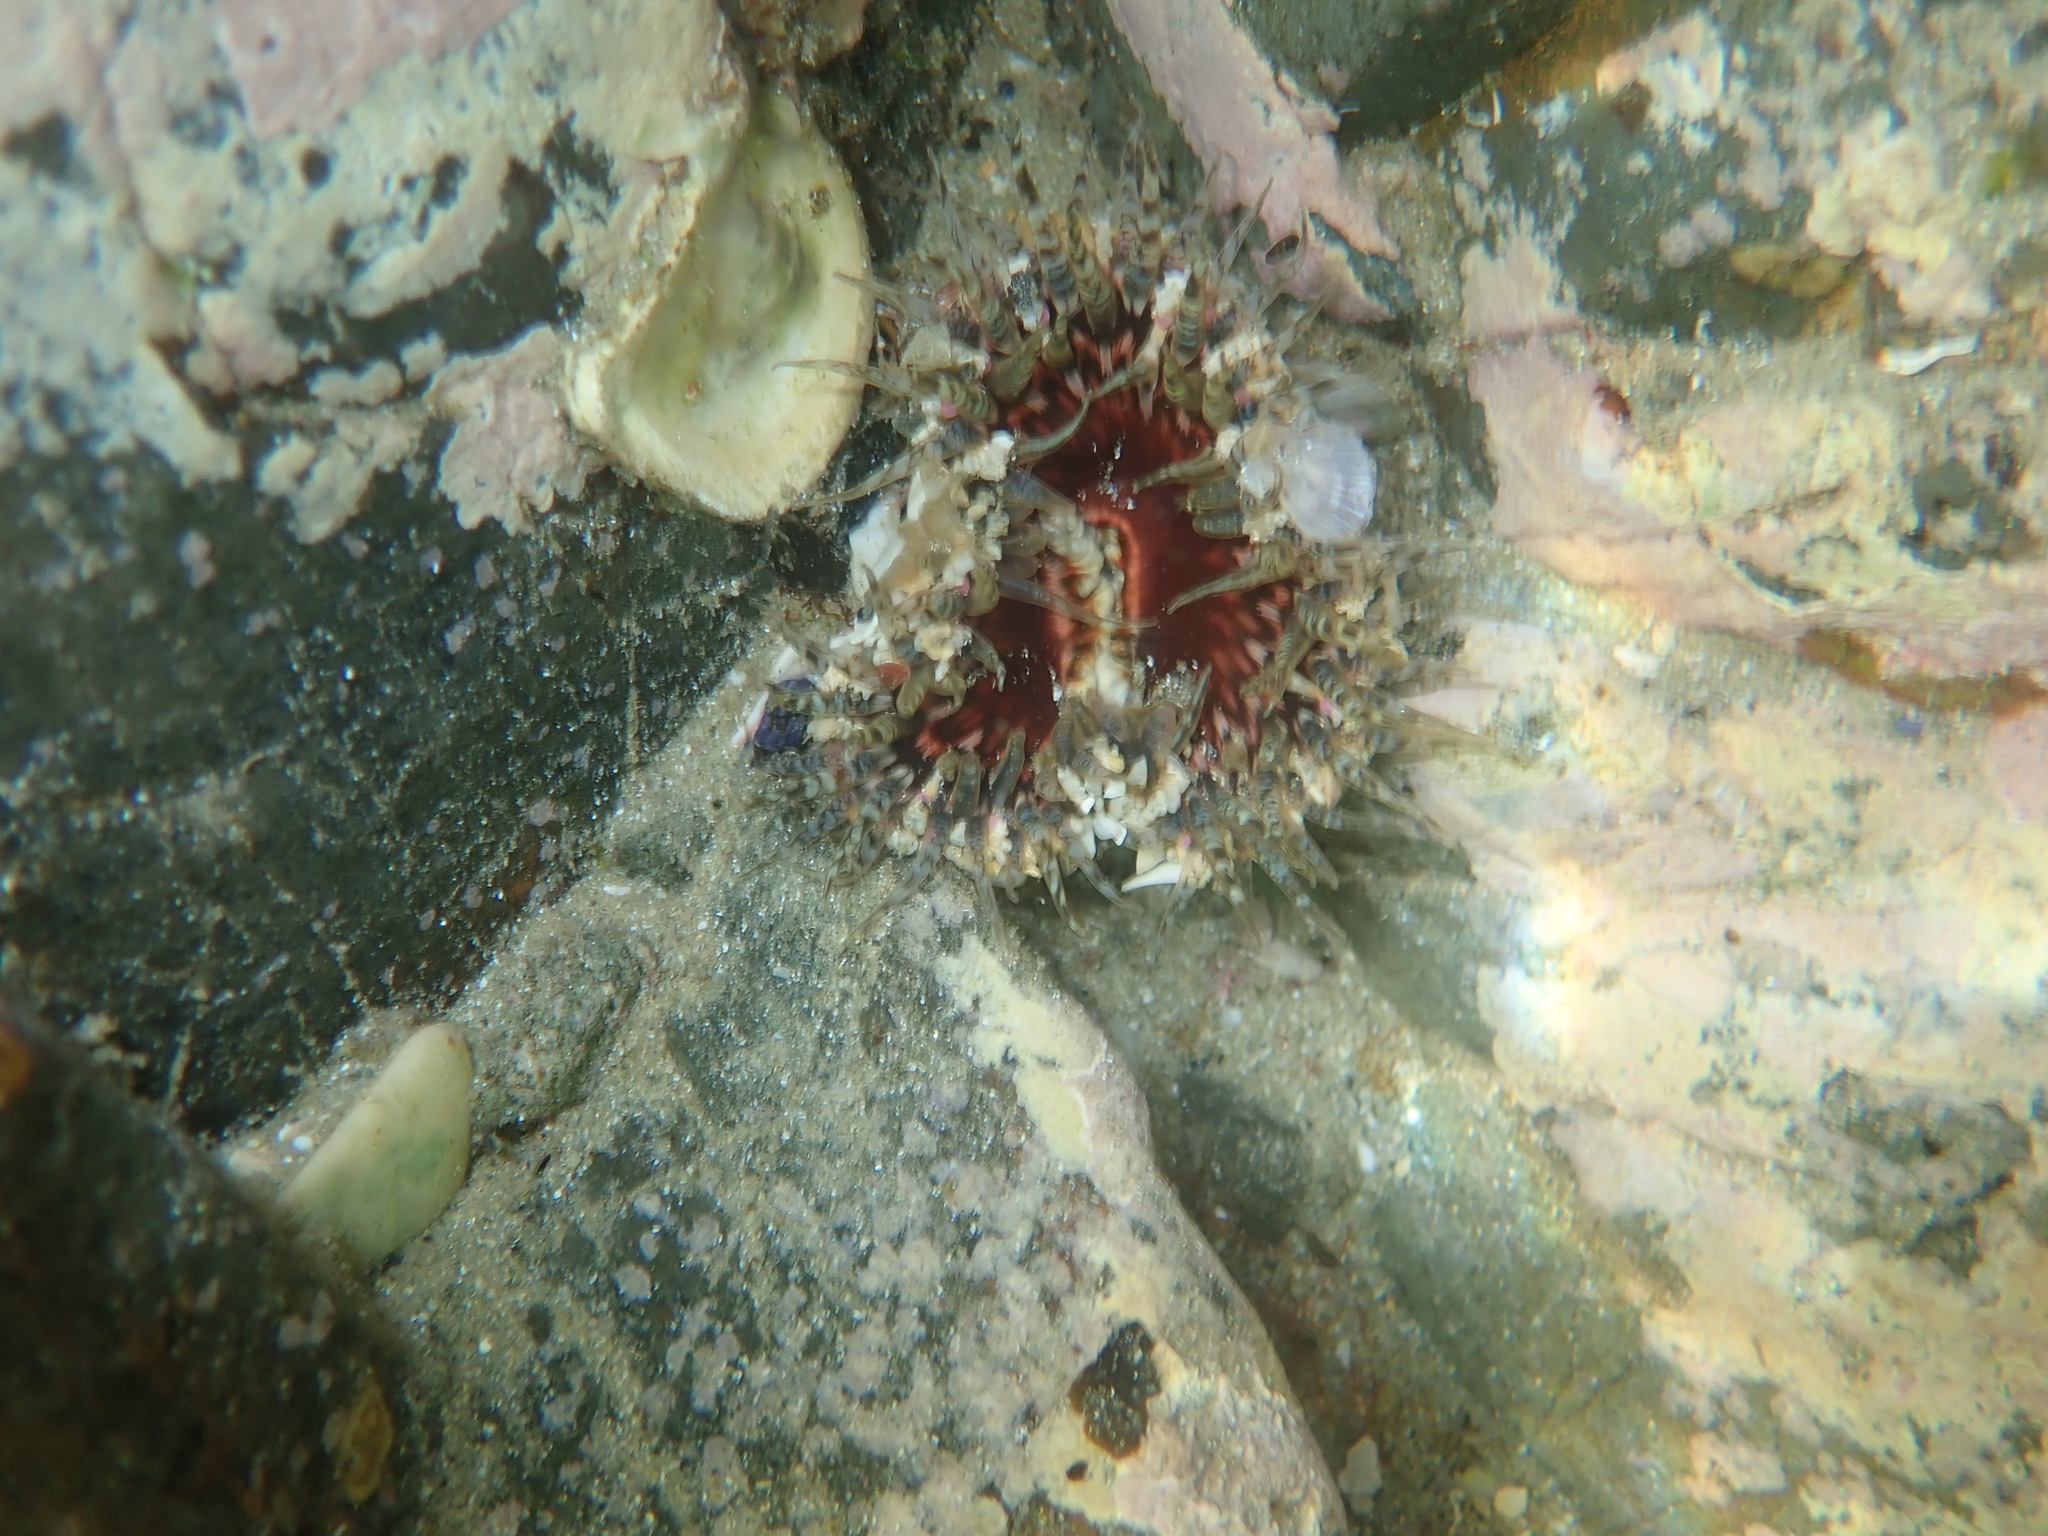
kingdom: Animalia
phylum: Cnidaria
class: Anthozoa
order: Actiniaria
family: Actiniidae
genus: Oulactis
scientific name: Oulactis muscosa
